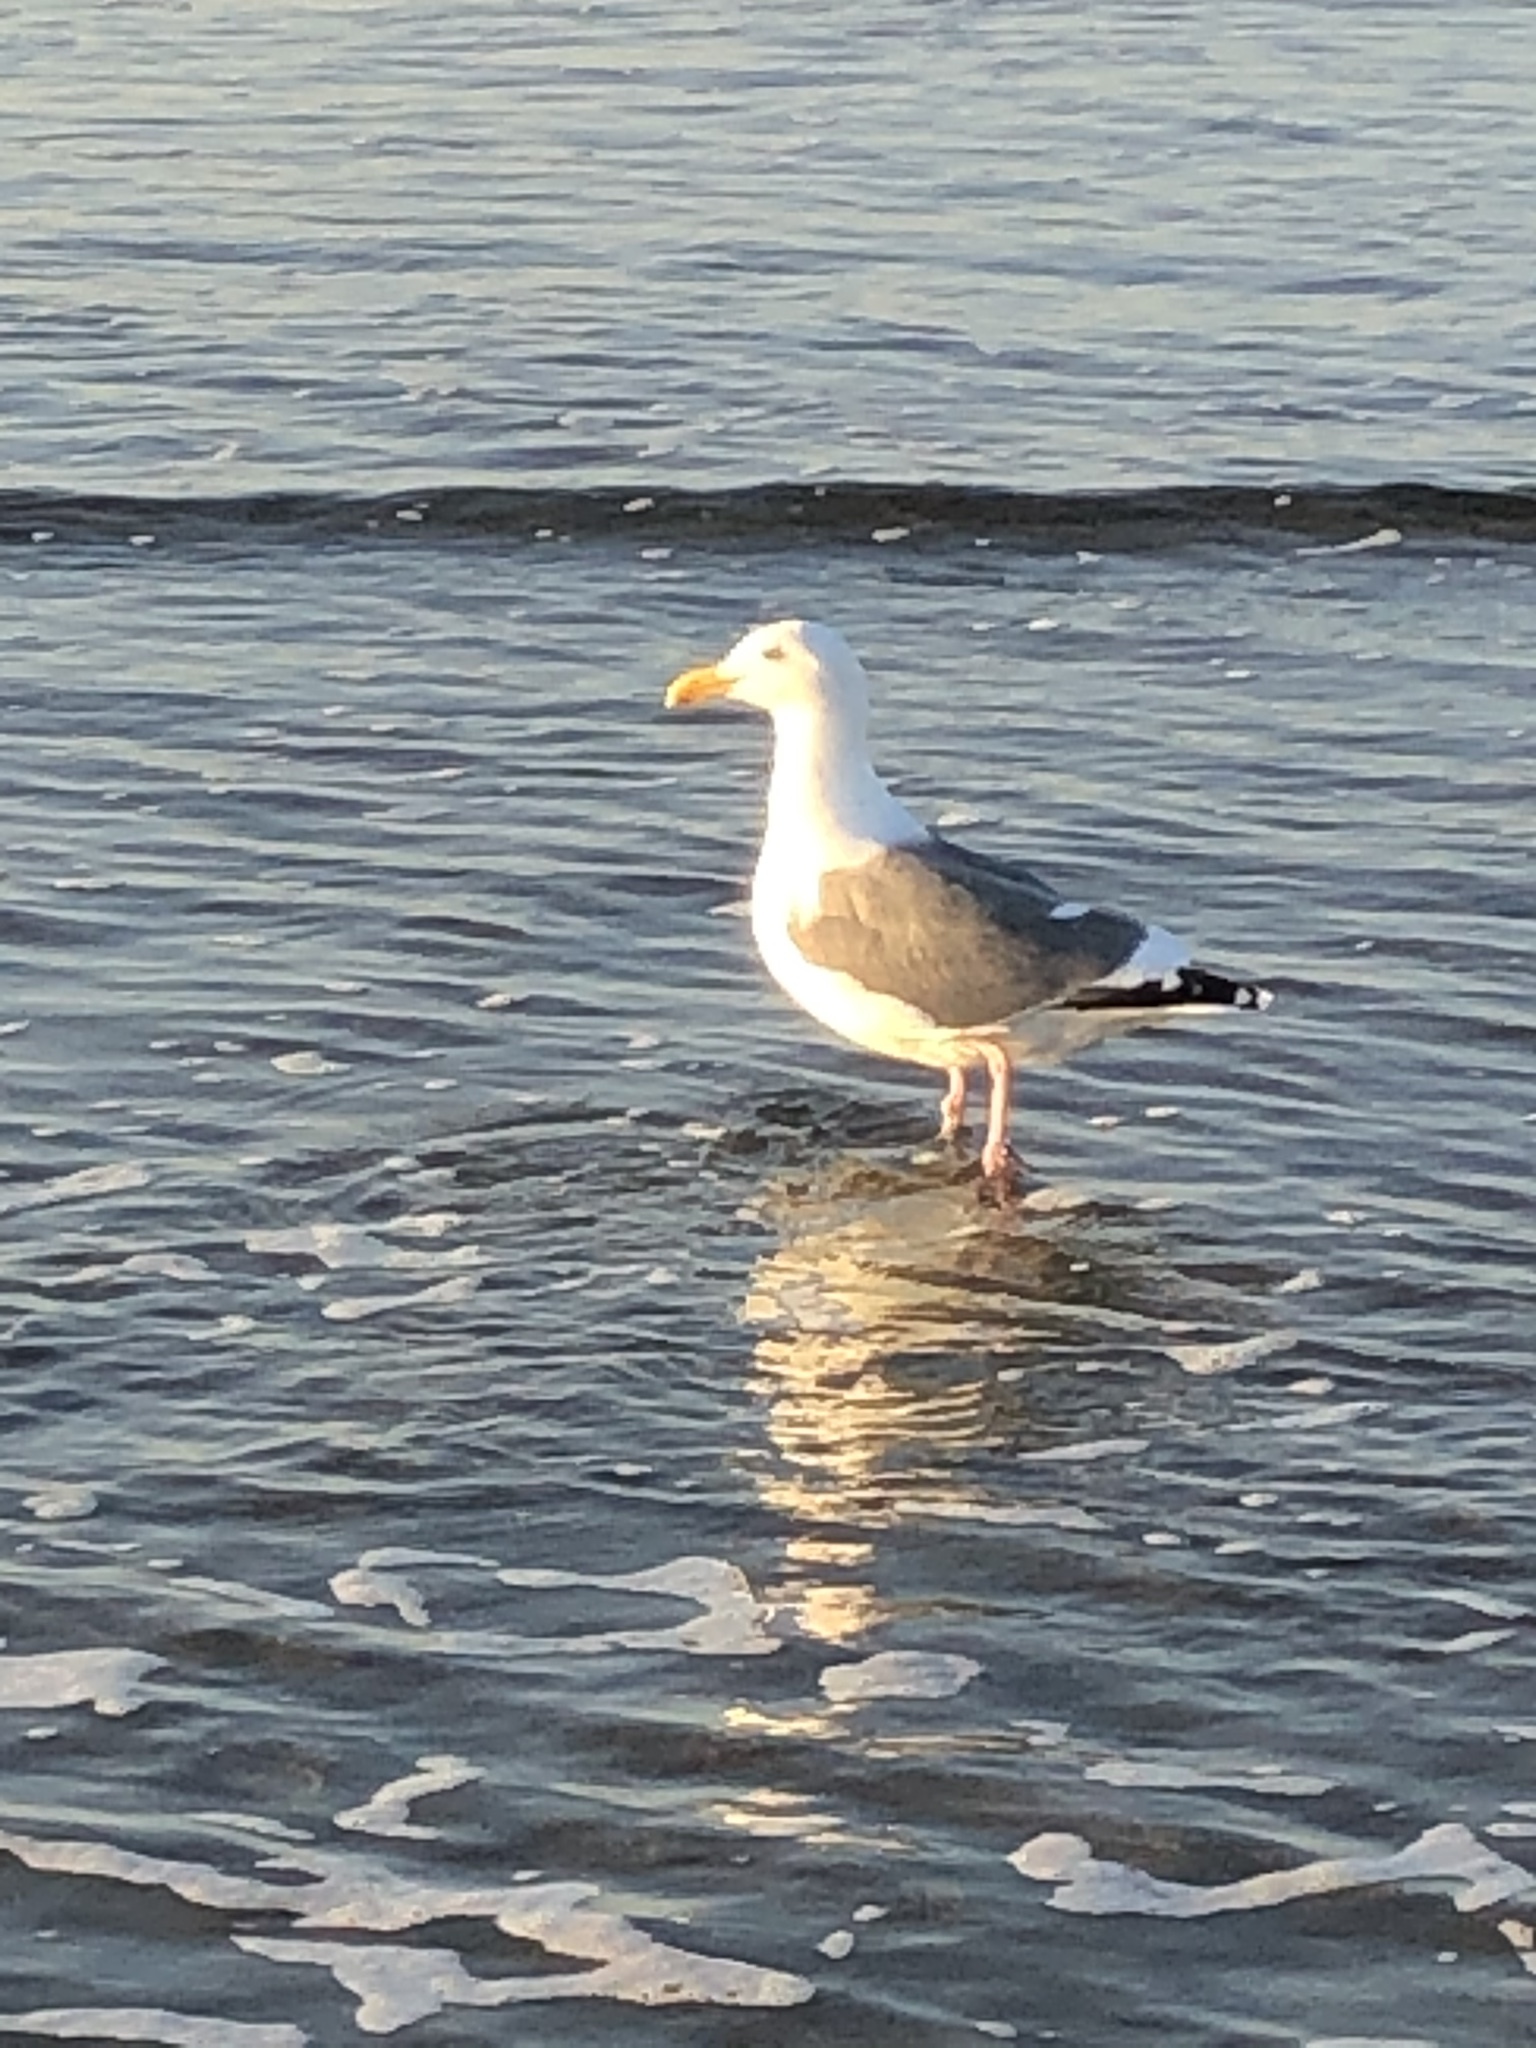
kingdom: Animalia
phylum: Chordata
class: Aves
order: Charadriiformes
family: Laridae
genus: Larus
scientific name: Larus occidentalis
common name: Western gull
